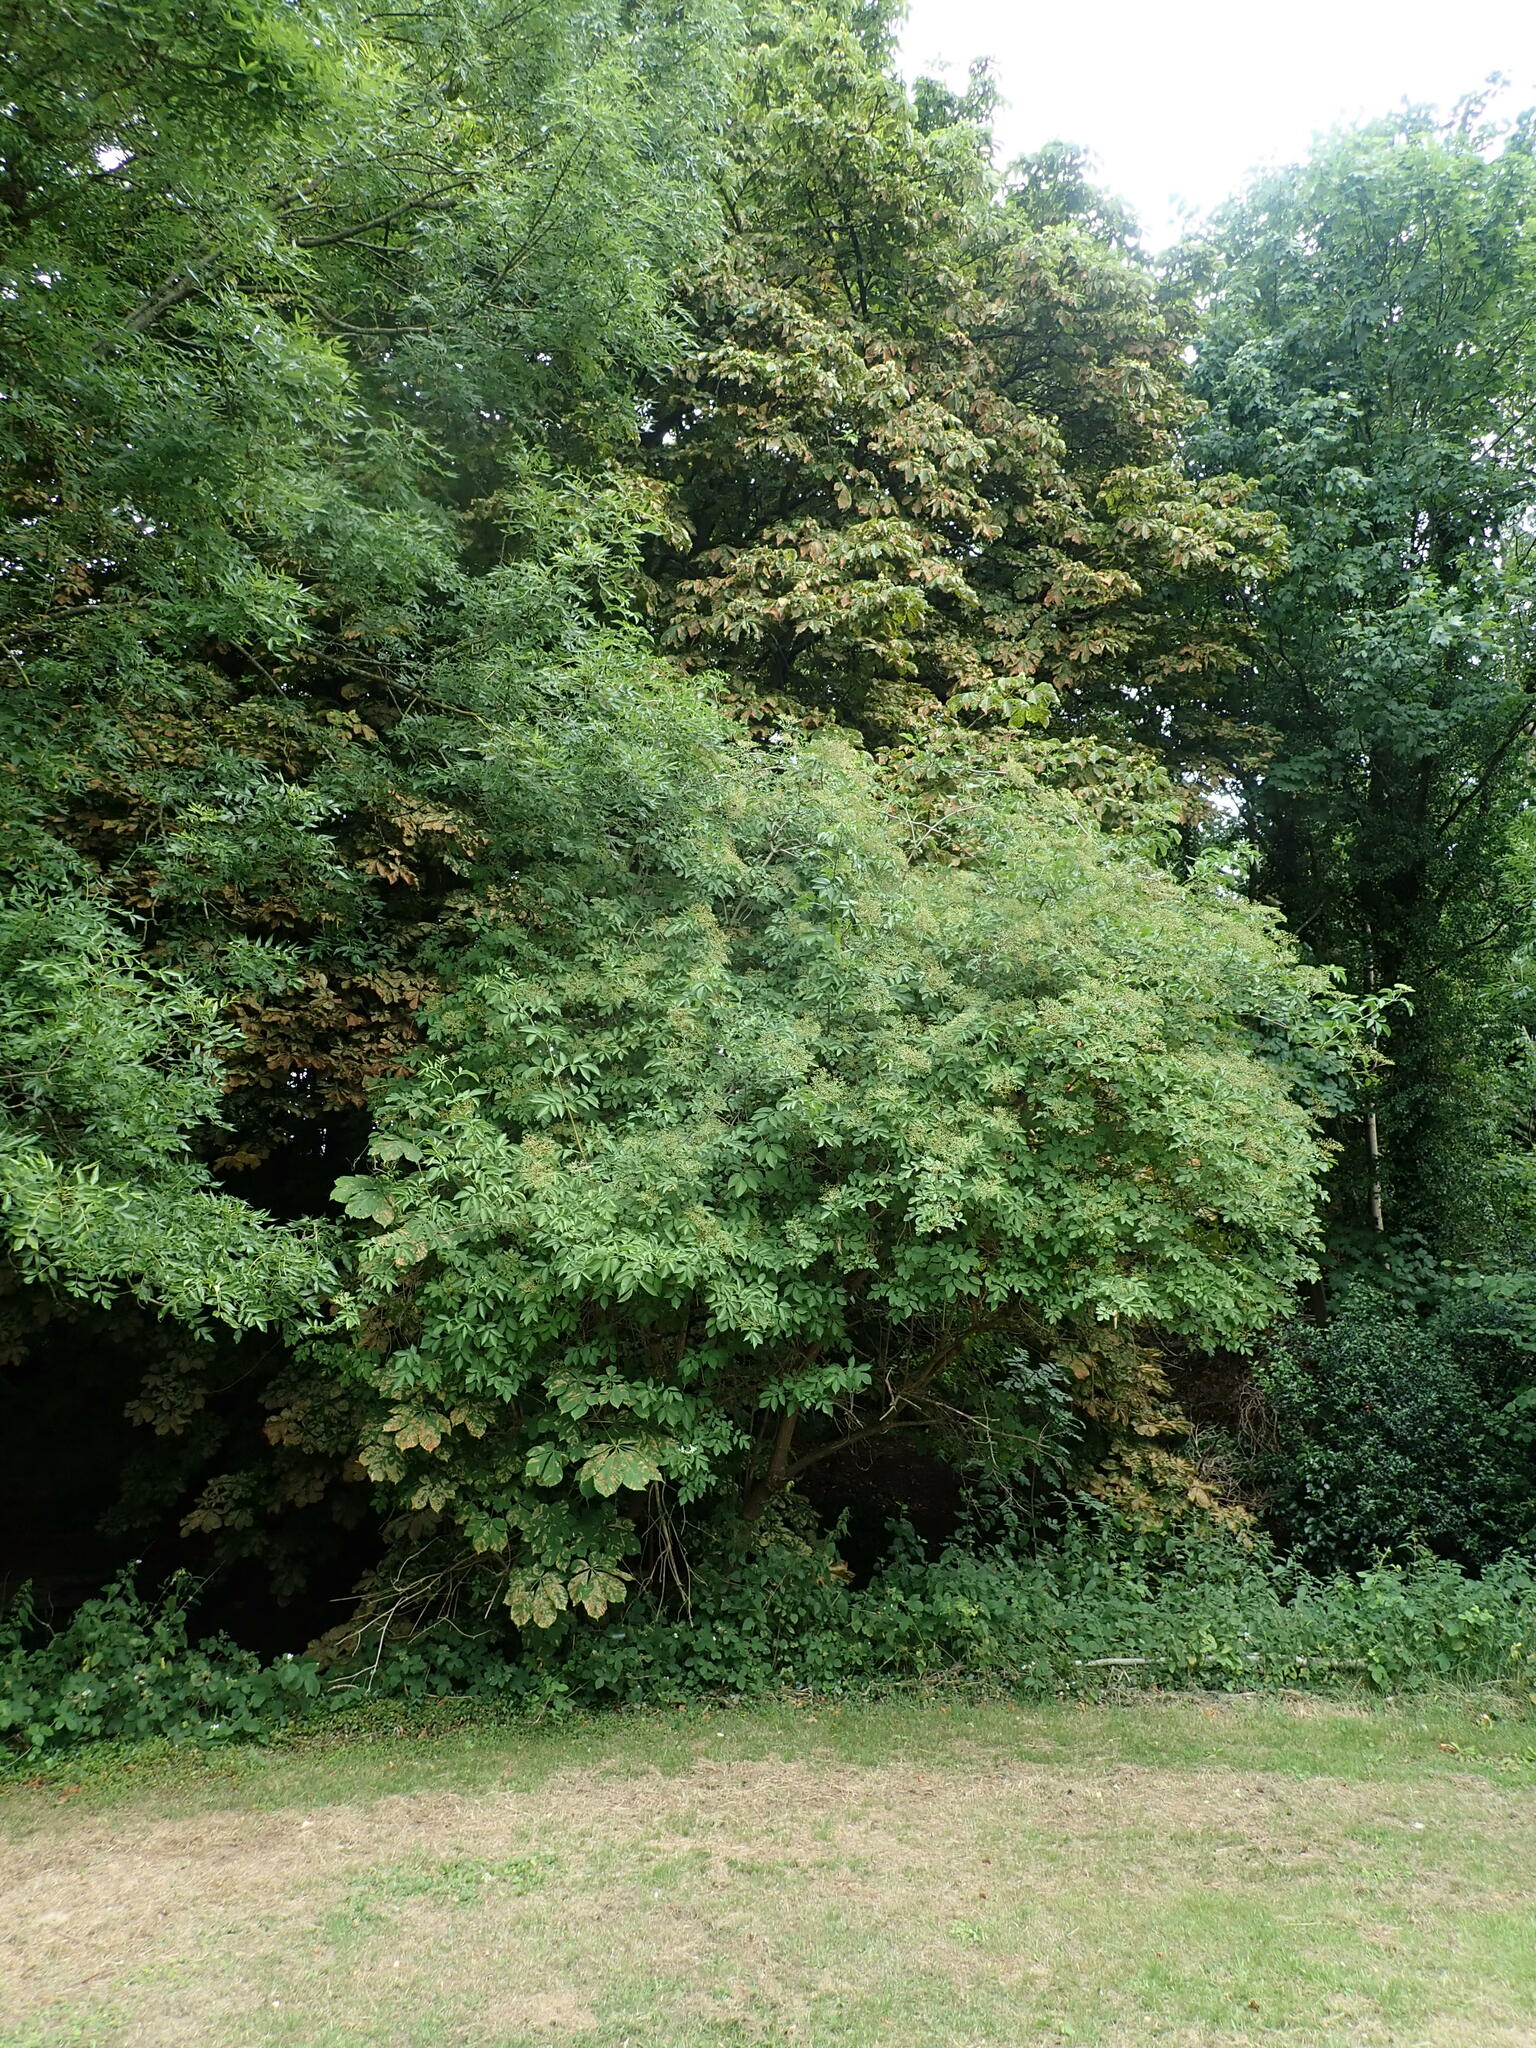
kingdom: Plantae
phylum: Tracheophyta
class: Magnoliopsida
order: Dipsacales
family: Viburnaceae
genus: Sambucus
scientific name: Sambucus nigra
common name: Elder
